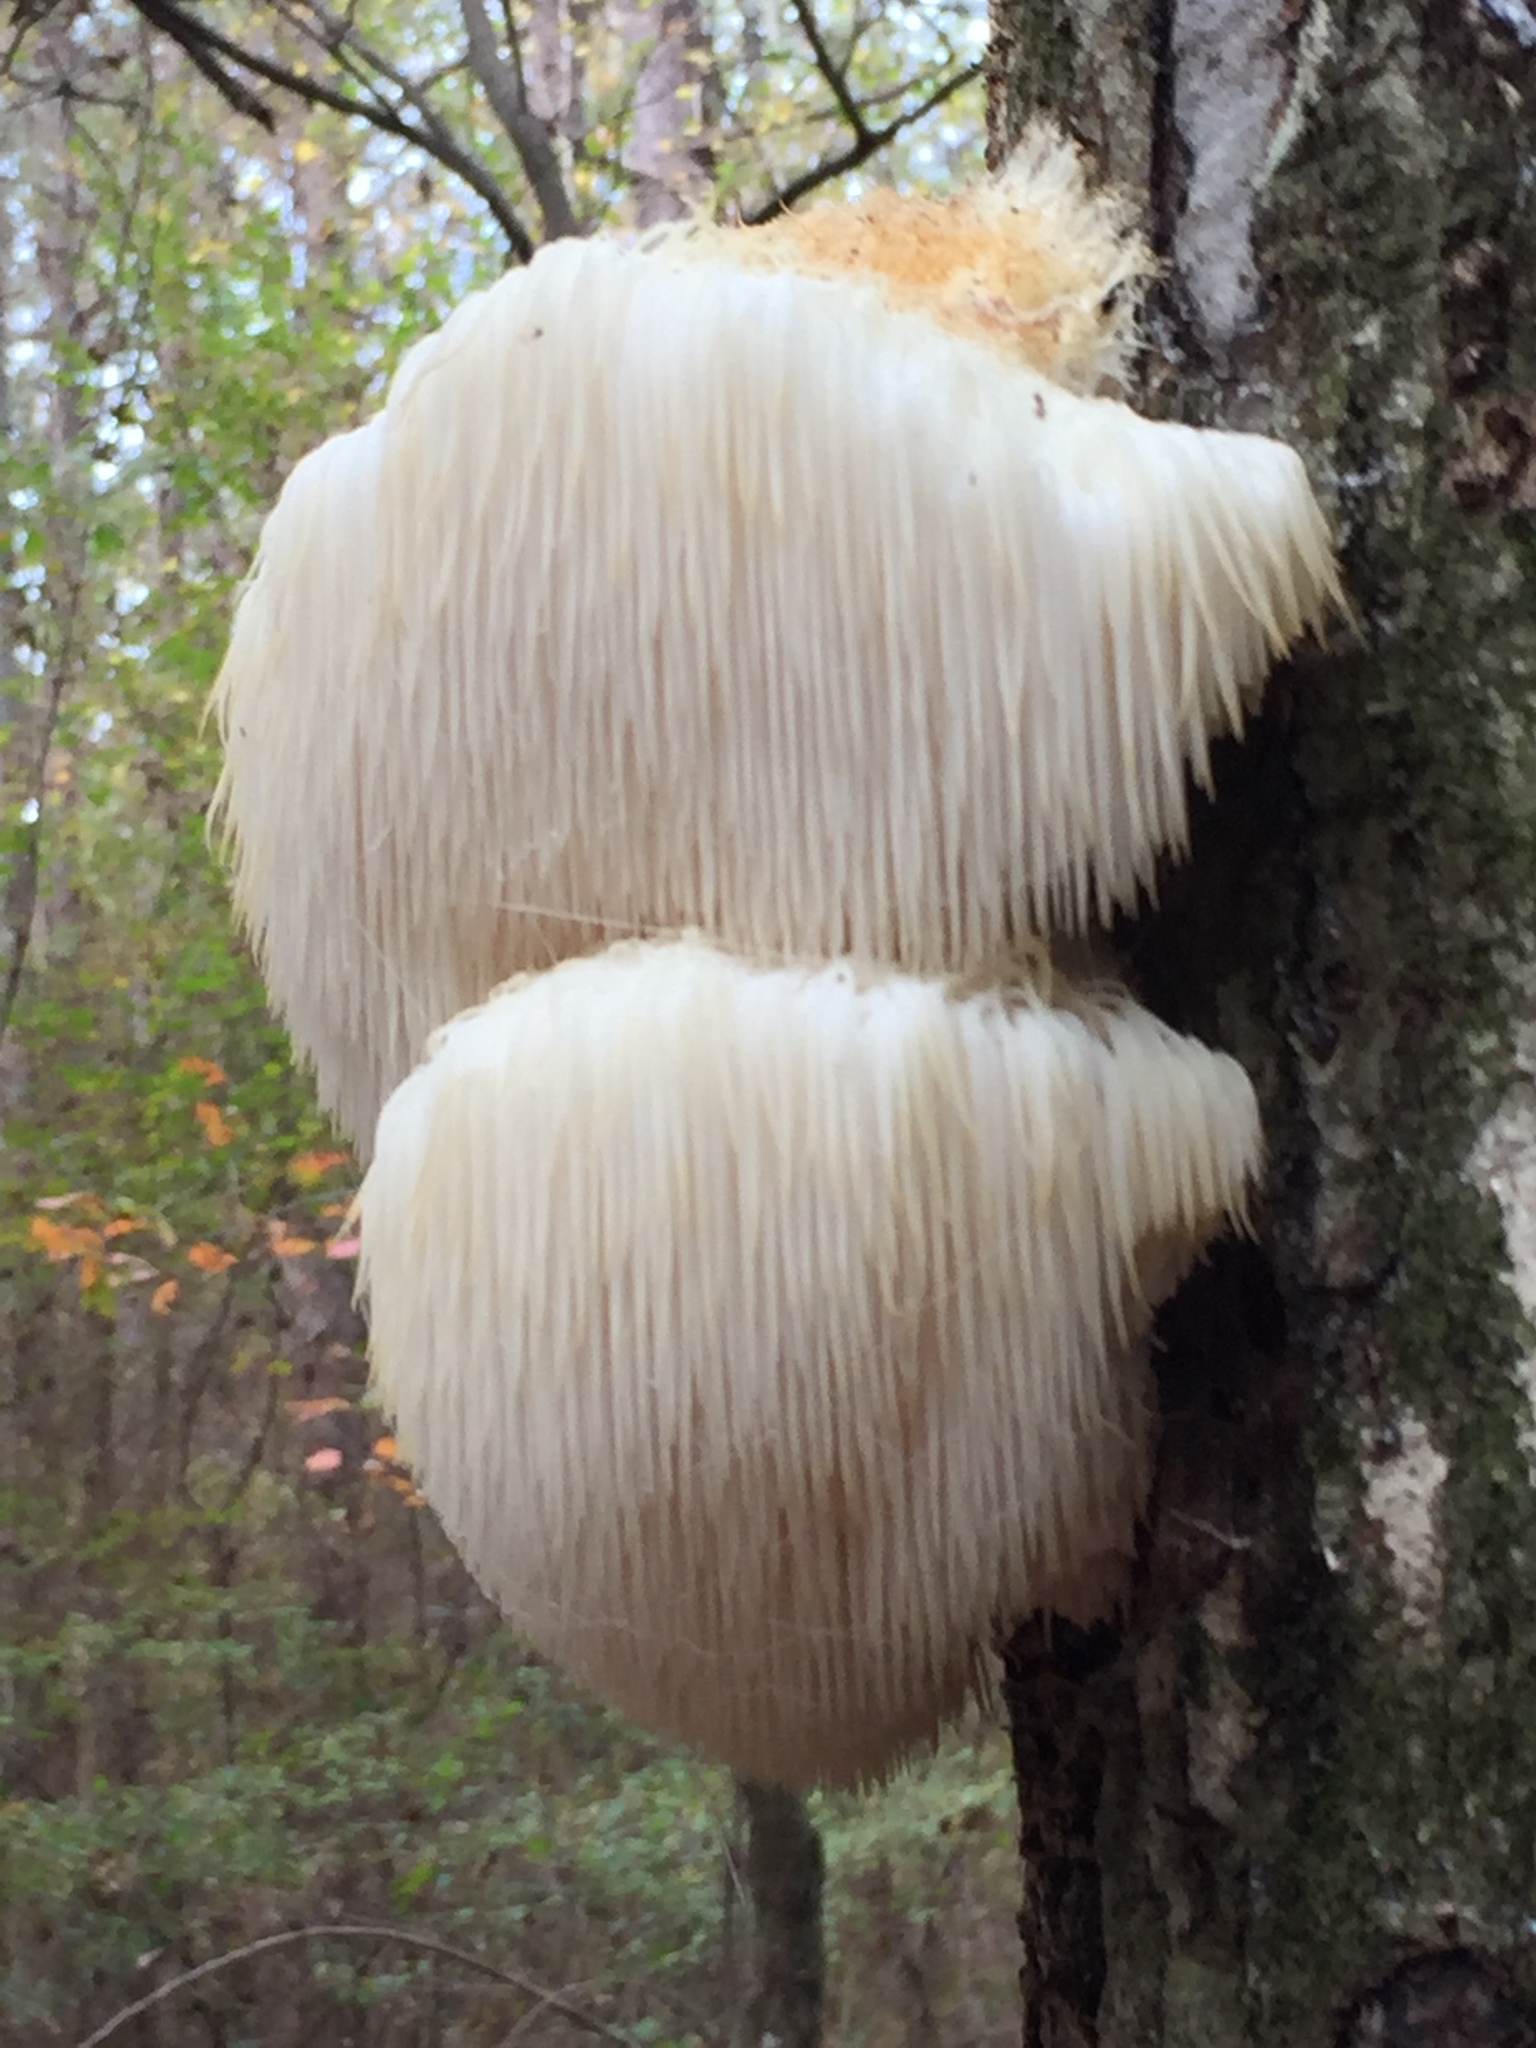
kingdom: Fungi
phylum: Basidiomycota
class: Agaricomycetes
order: Russulales
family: Hericiaceae
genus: Hericium
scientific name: Hericium erinaceus
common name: Bearded tooth
